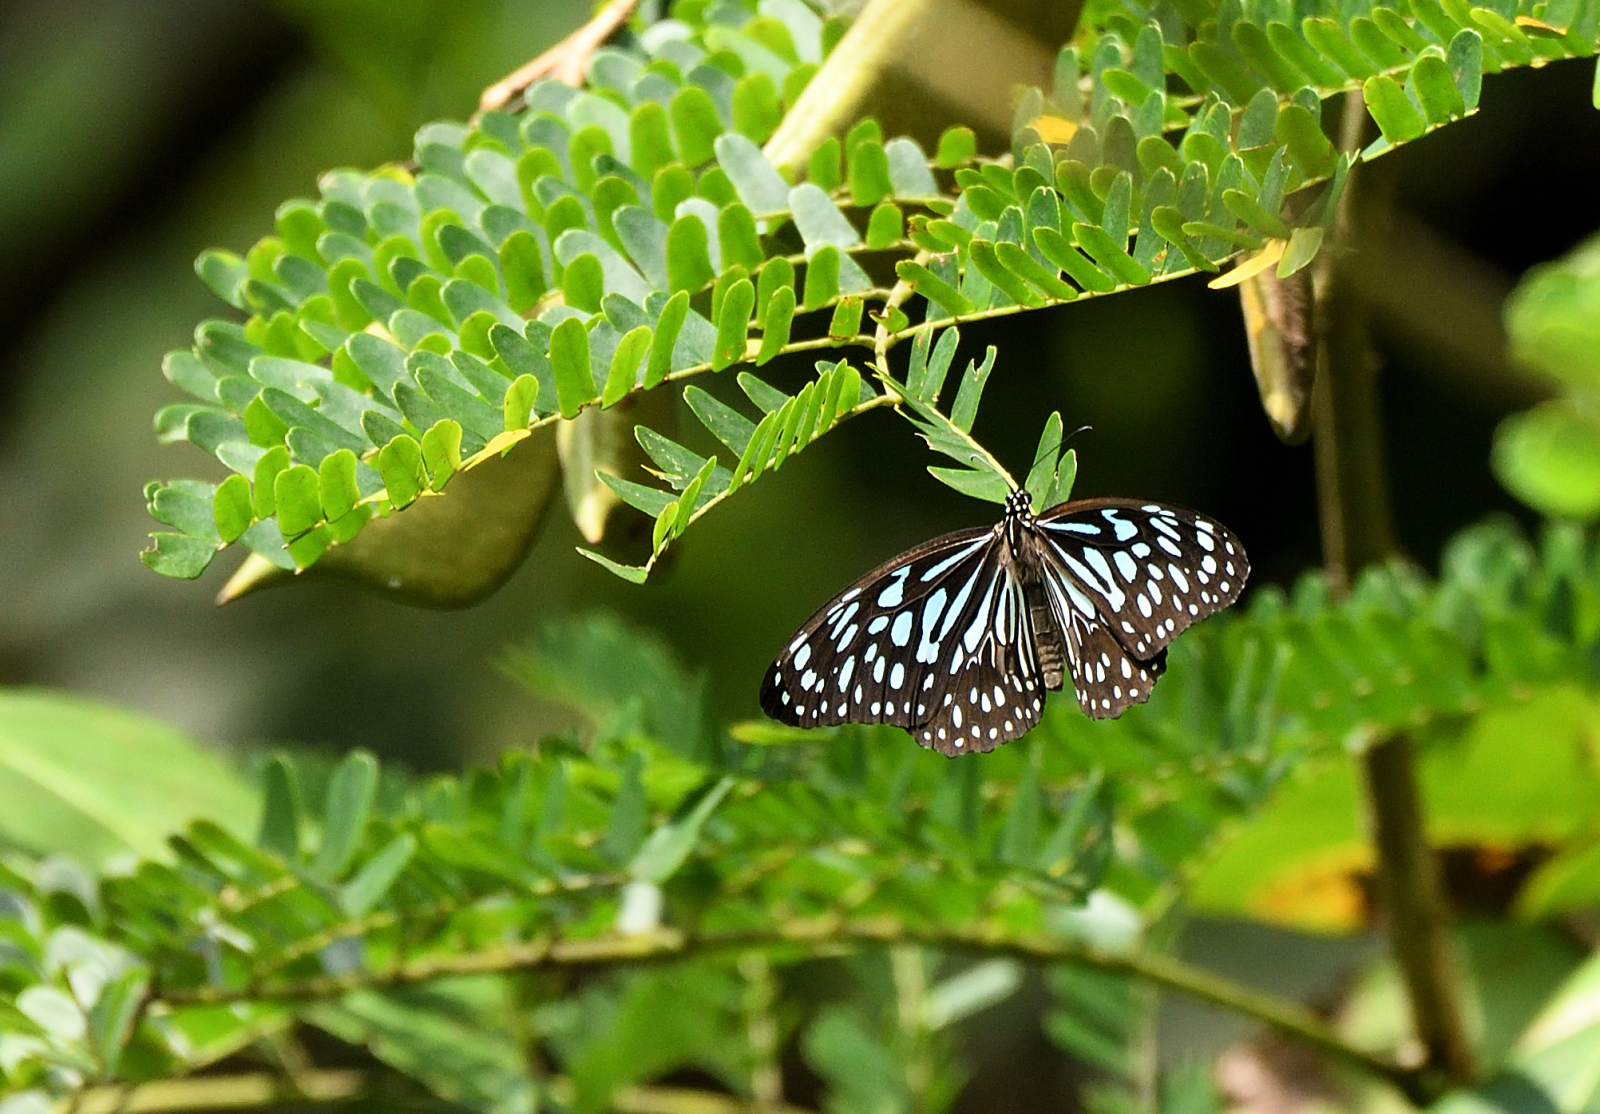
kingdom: Animalia
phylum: Arthropoda
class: Insecta
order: Lepidoptera
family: Nymphalidae
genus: Tirumala
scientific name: Tirumala septentrionis
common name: Dark blue tiger butterfly
